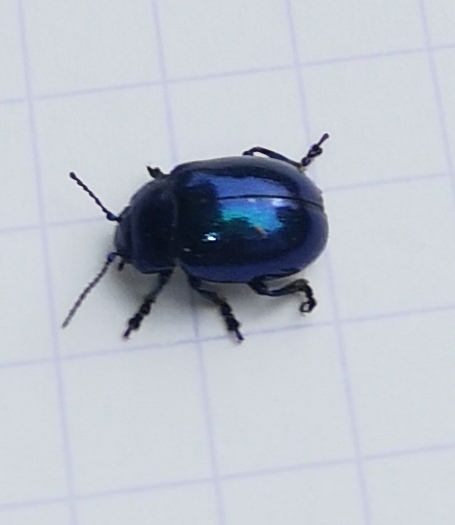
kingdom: Animalia
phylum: Arthropoda
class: Insecta
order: Coleoptera
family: Chrysomelidae
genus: Chrysolina
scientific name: Chrysolina coerulans
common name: Blue mint beetle
